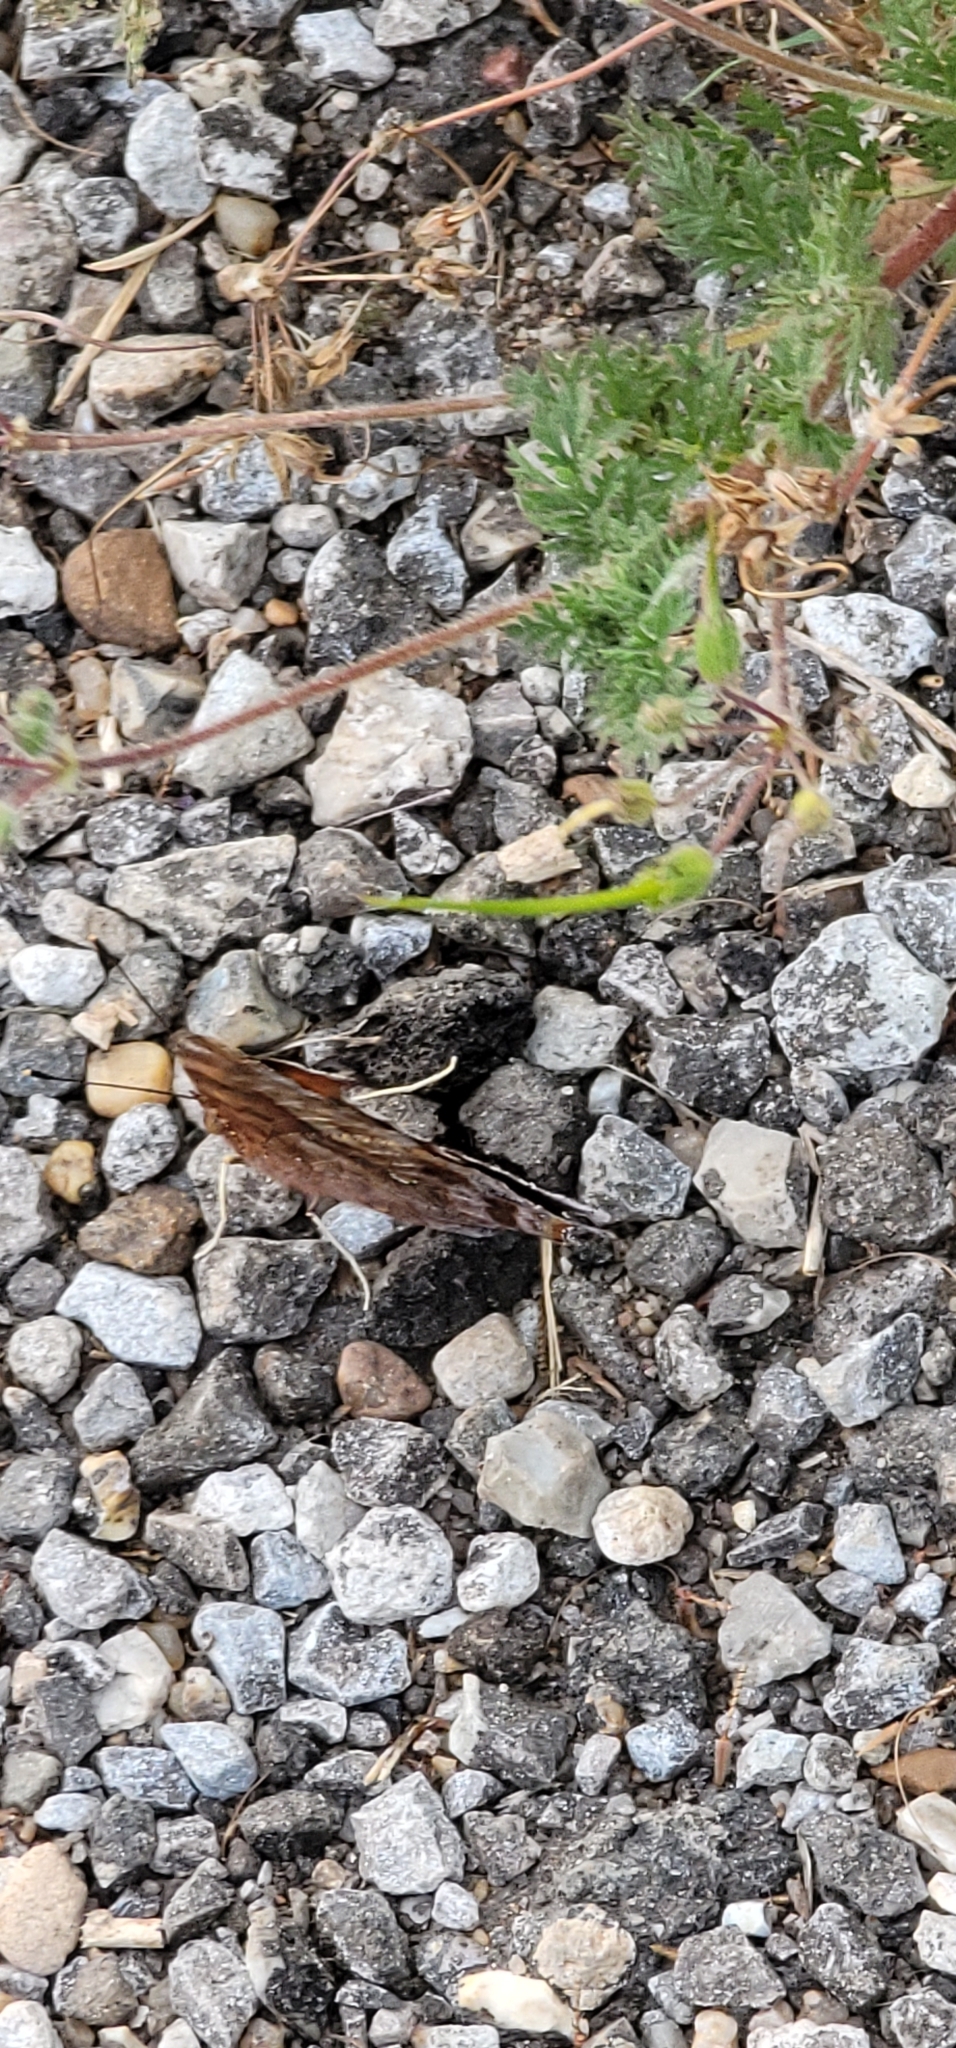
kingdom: Animalia
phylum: Arthropoda
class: Insecta
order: Lepidoptera
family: Nymphalidae
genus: Polygonia
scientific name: Polygonia interrogationis
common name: Question mark
